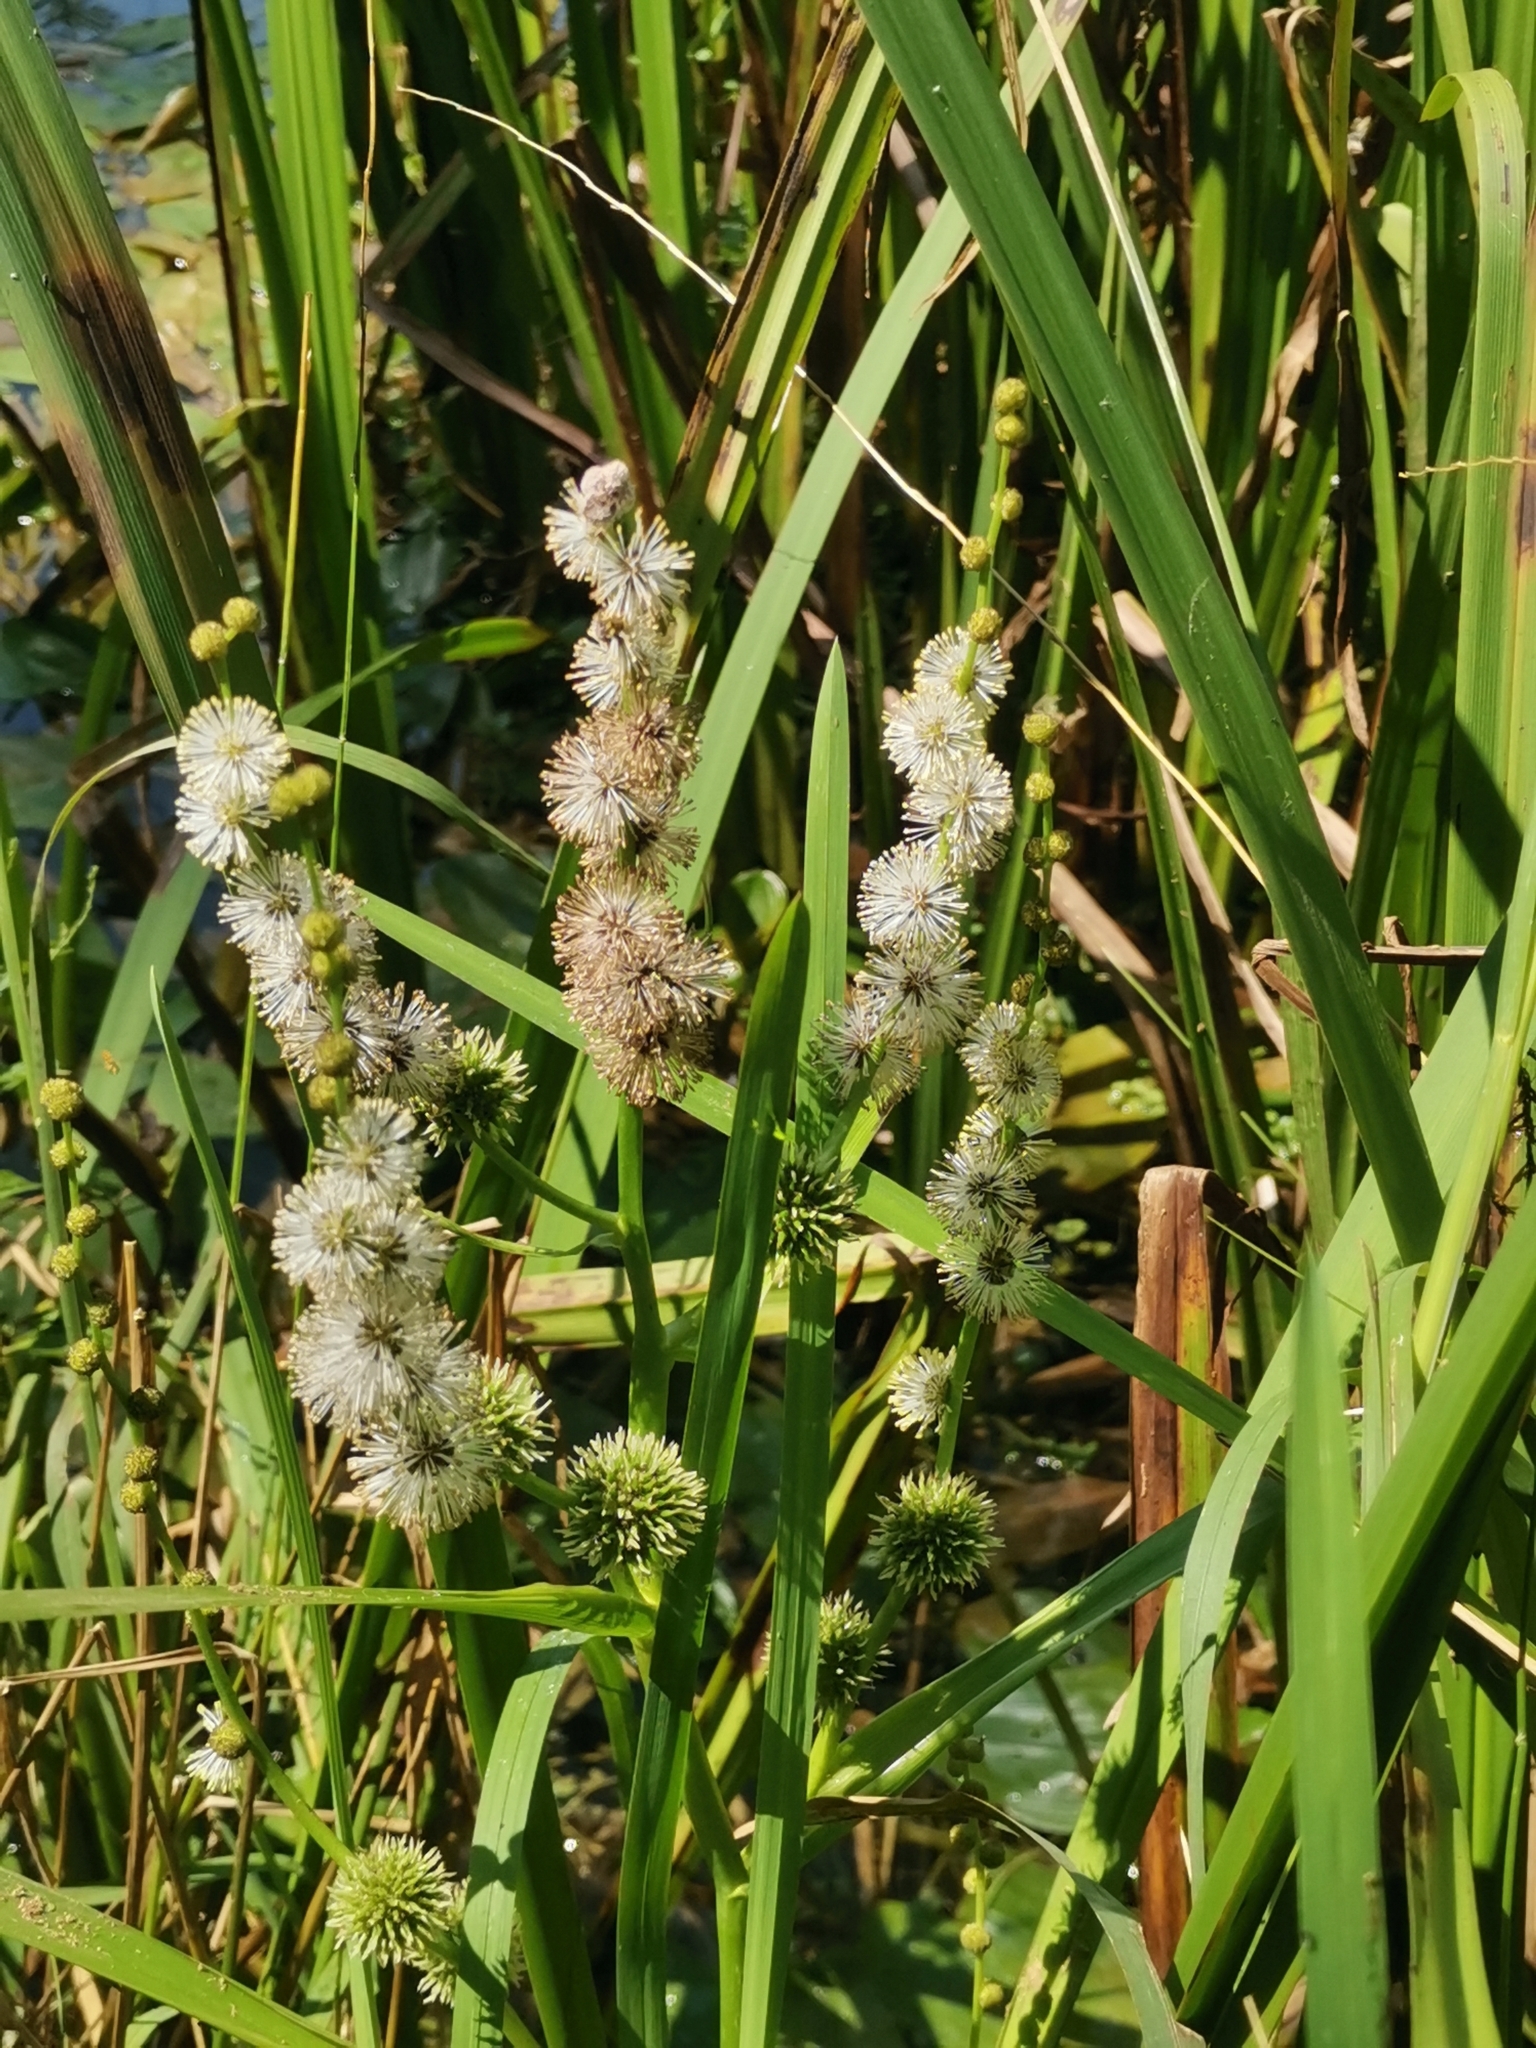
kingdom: Plantae
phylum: Tracheophyta
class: Liliopsida
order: Poales
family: Typhaceae
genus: Sparganium
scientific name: Sparganium erectum
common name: Branched bur-reed
